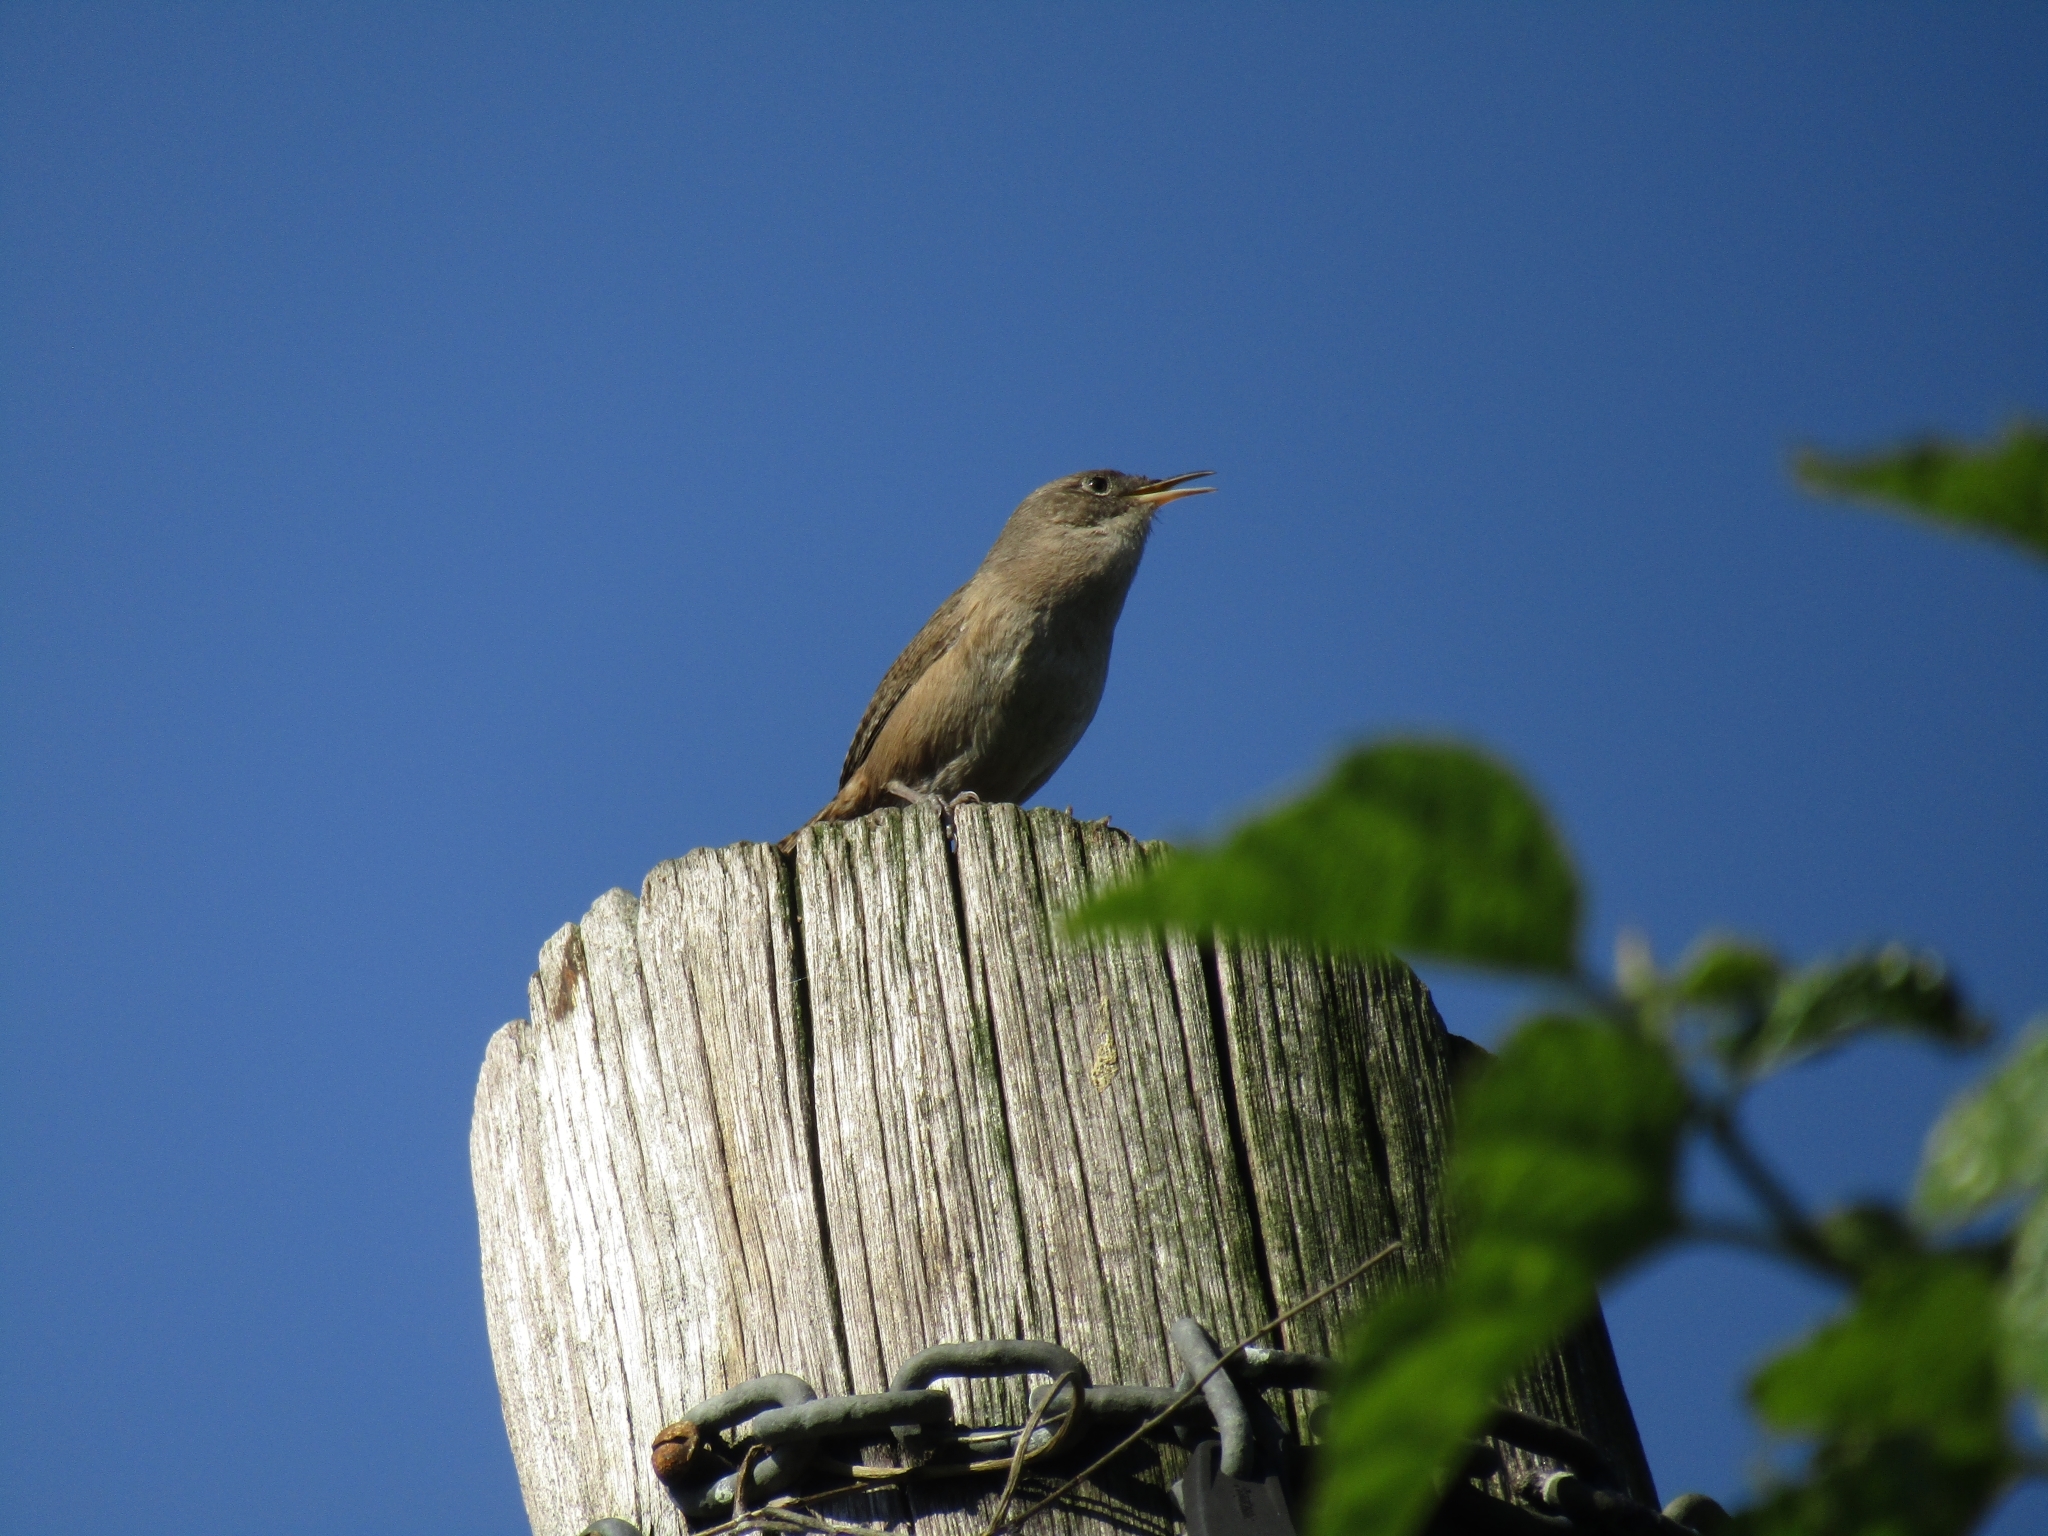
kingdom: Animalia
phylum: Chordata
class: Aves
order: Passeriformes
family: Troglodytidae
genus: Troglodytes
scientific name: Troglodytes aedon
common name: House wren
